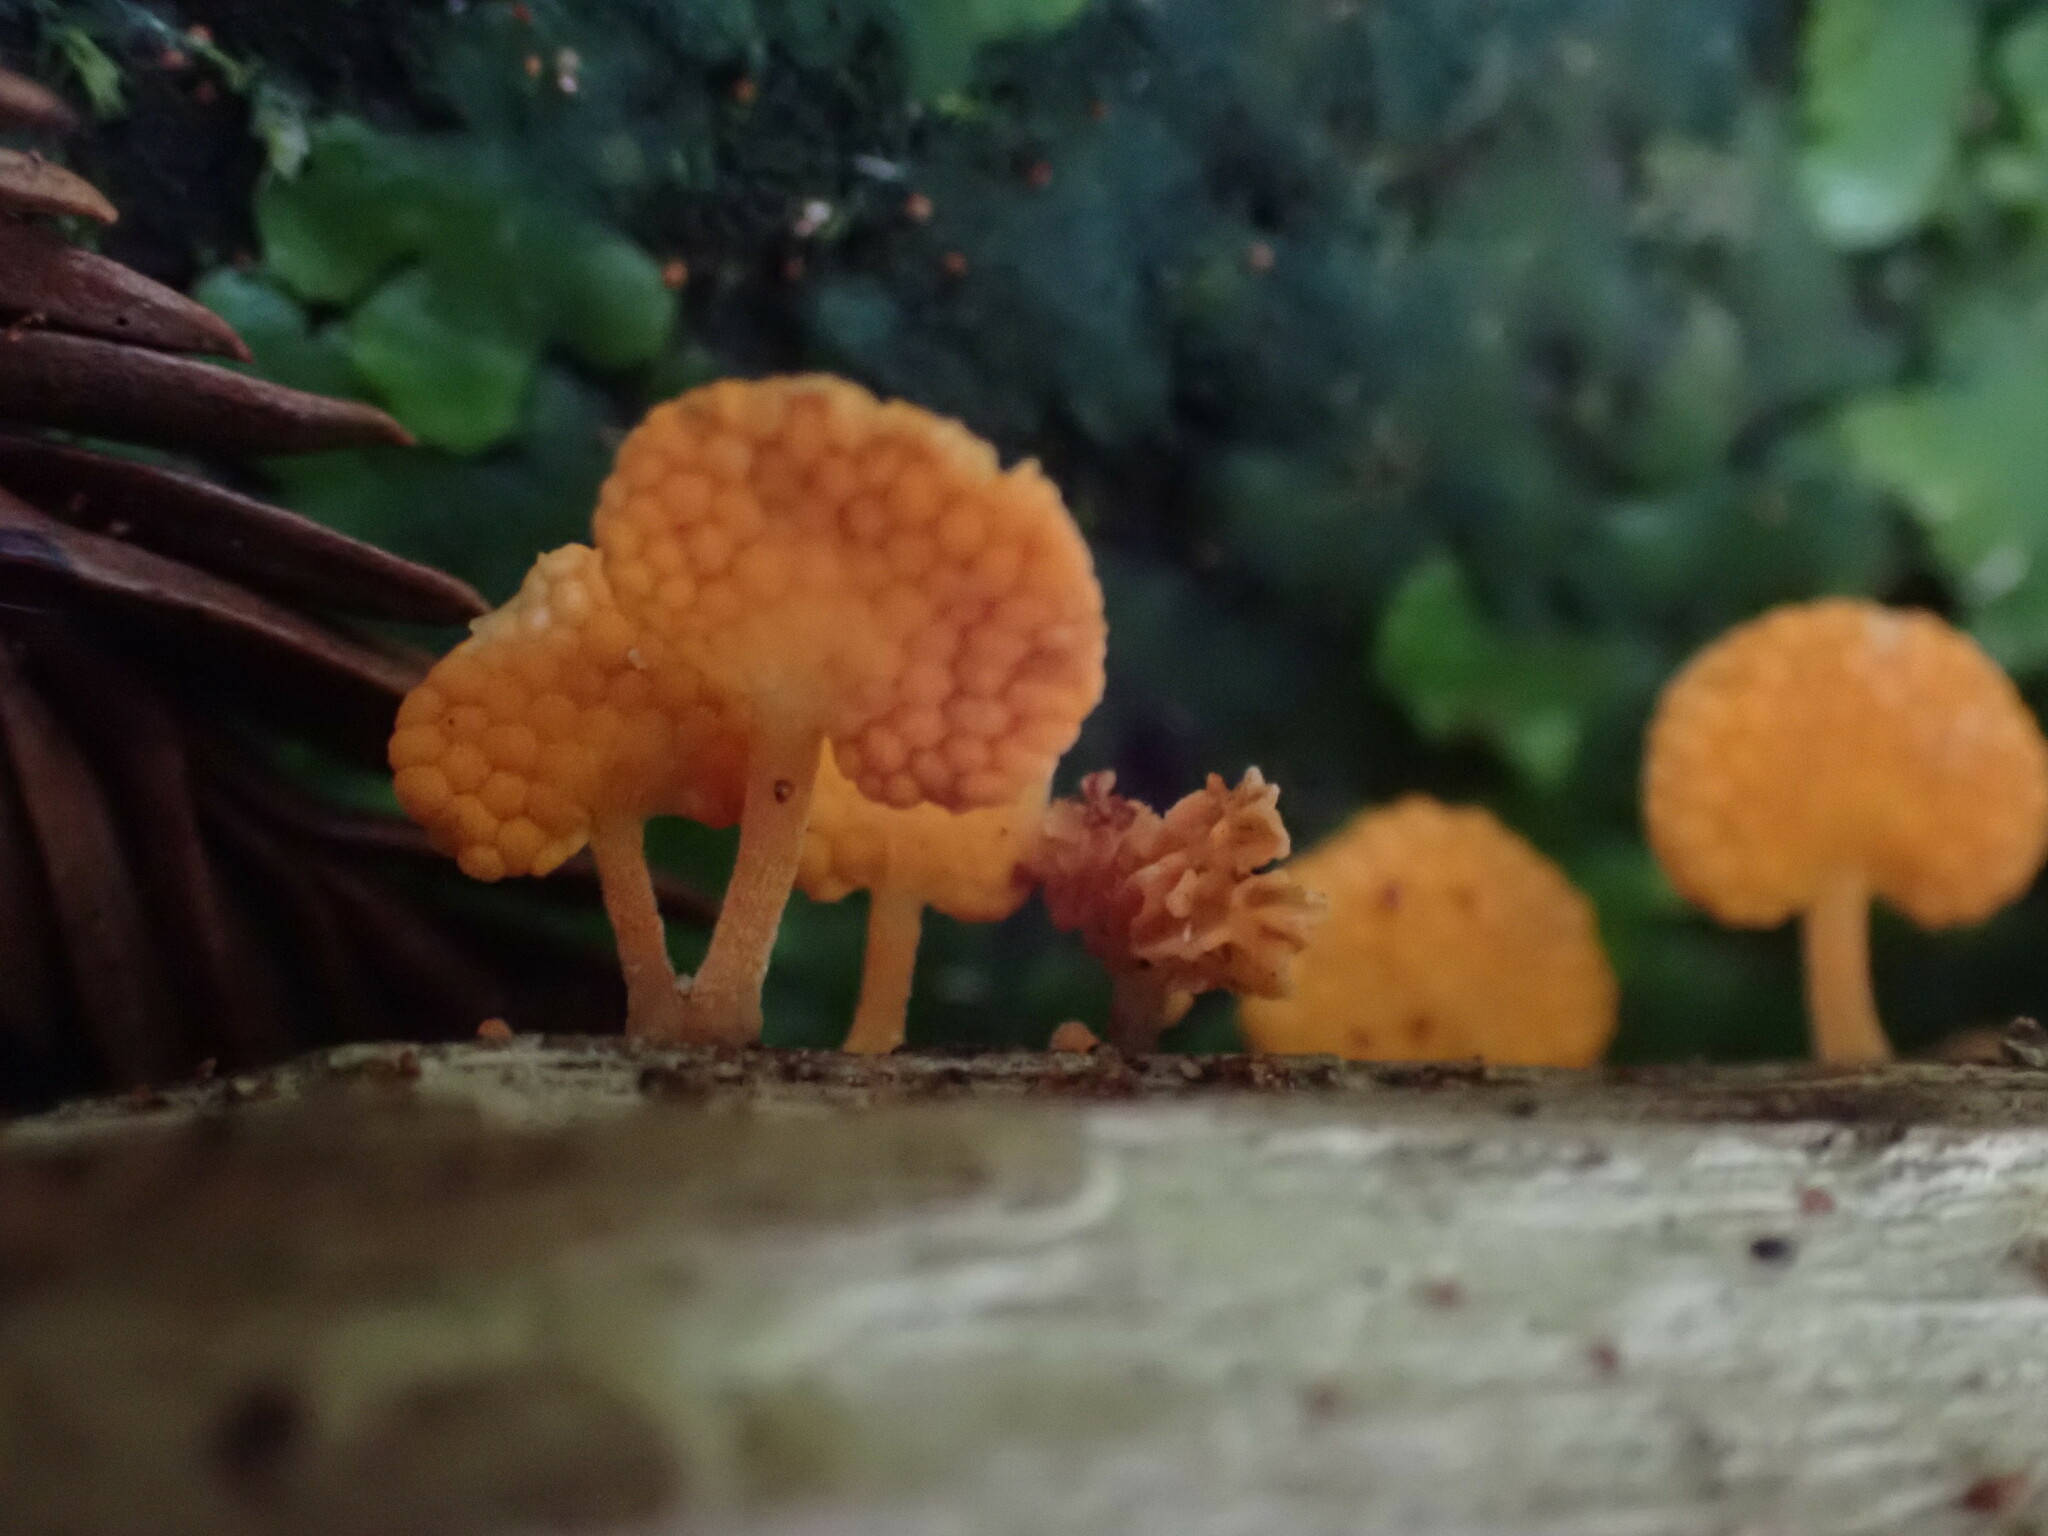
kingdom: Fungi
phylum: Basidiomycota
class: Agaricomycetes
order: Agaricales
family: Mycenaceae
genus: Favolaschia
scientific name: Favolaschia claudopus
